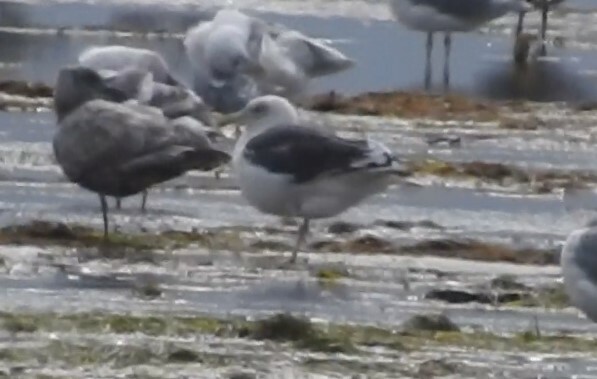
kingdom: Animalia
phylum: Chordata
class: Aves
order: Charadriiformes
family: Laridae
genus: Larus
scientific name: Larus schistisagus
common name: Slaty-backed gull
